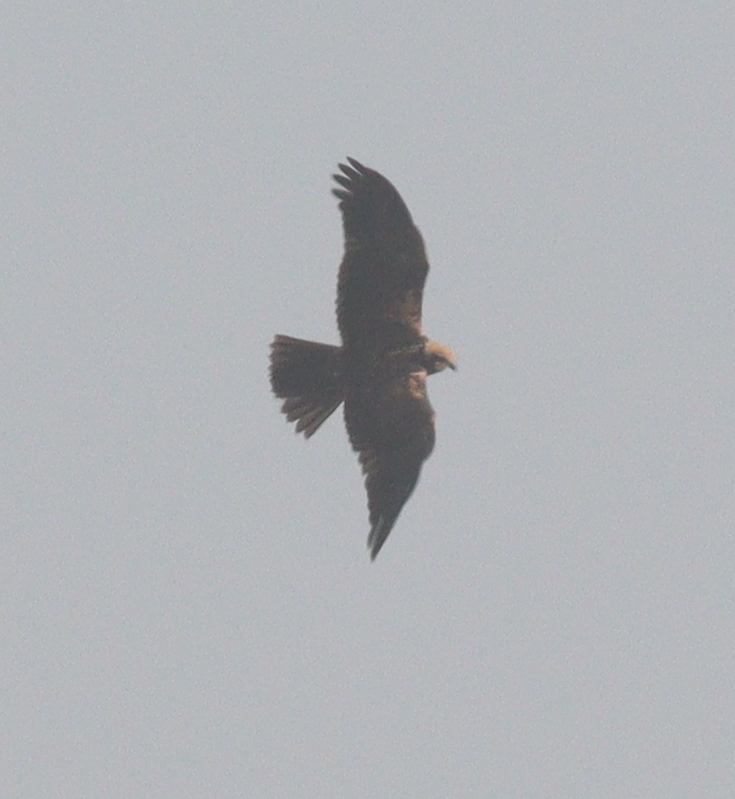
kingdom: Animalia
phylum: Chordata
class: Aves
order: Accipitriformes
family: Accipitridae
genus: Circus
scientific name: Circus aeruginosus
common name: Western marsh harrier
